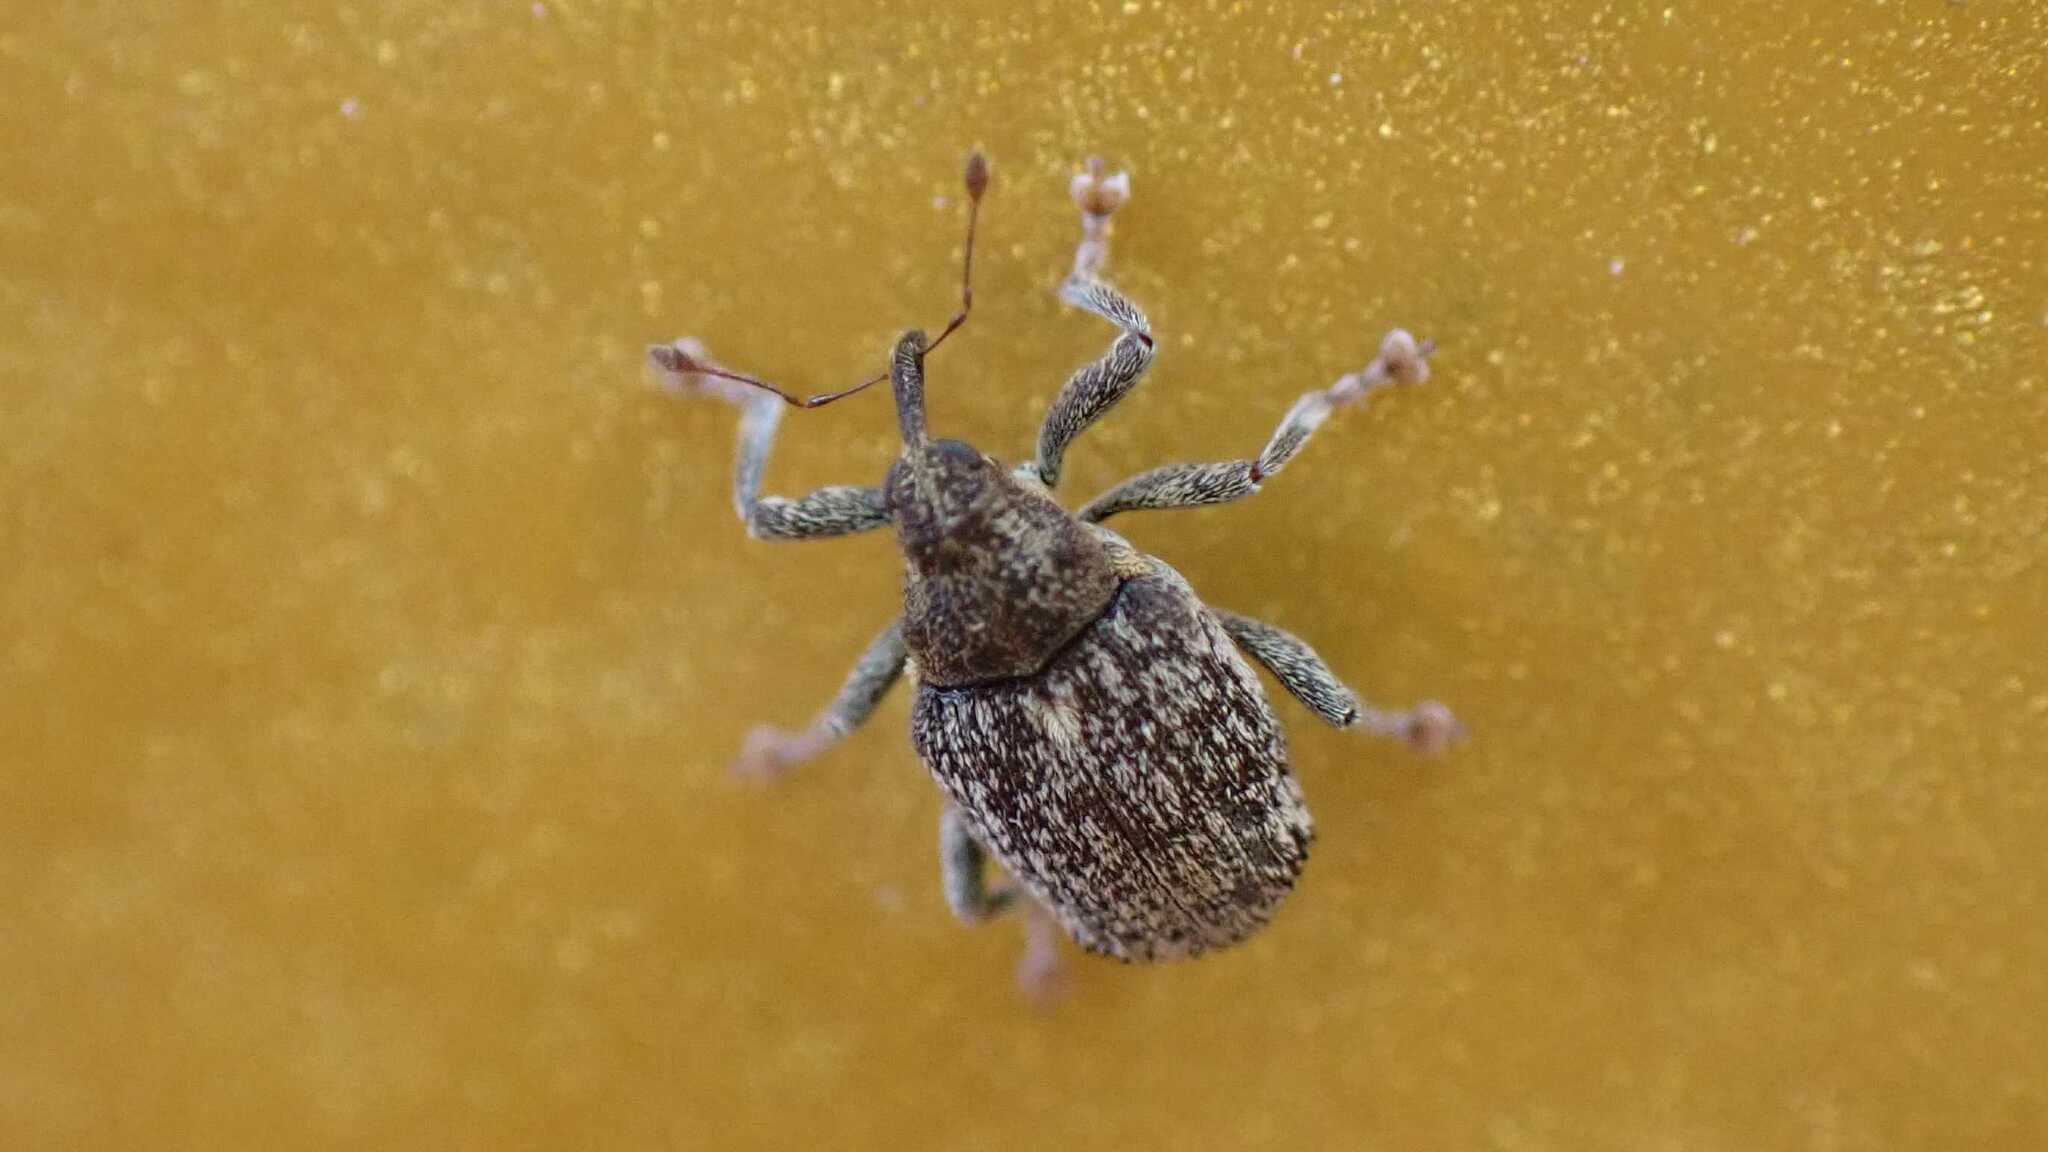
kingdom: Animalia
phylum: Arthropoda
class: Insecta
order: Coleoptera
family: Curculionidae
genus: Ceutorhynchus
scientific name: Ceutorhynchus pallidactylus
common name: Cabbage stem weavil
